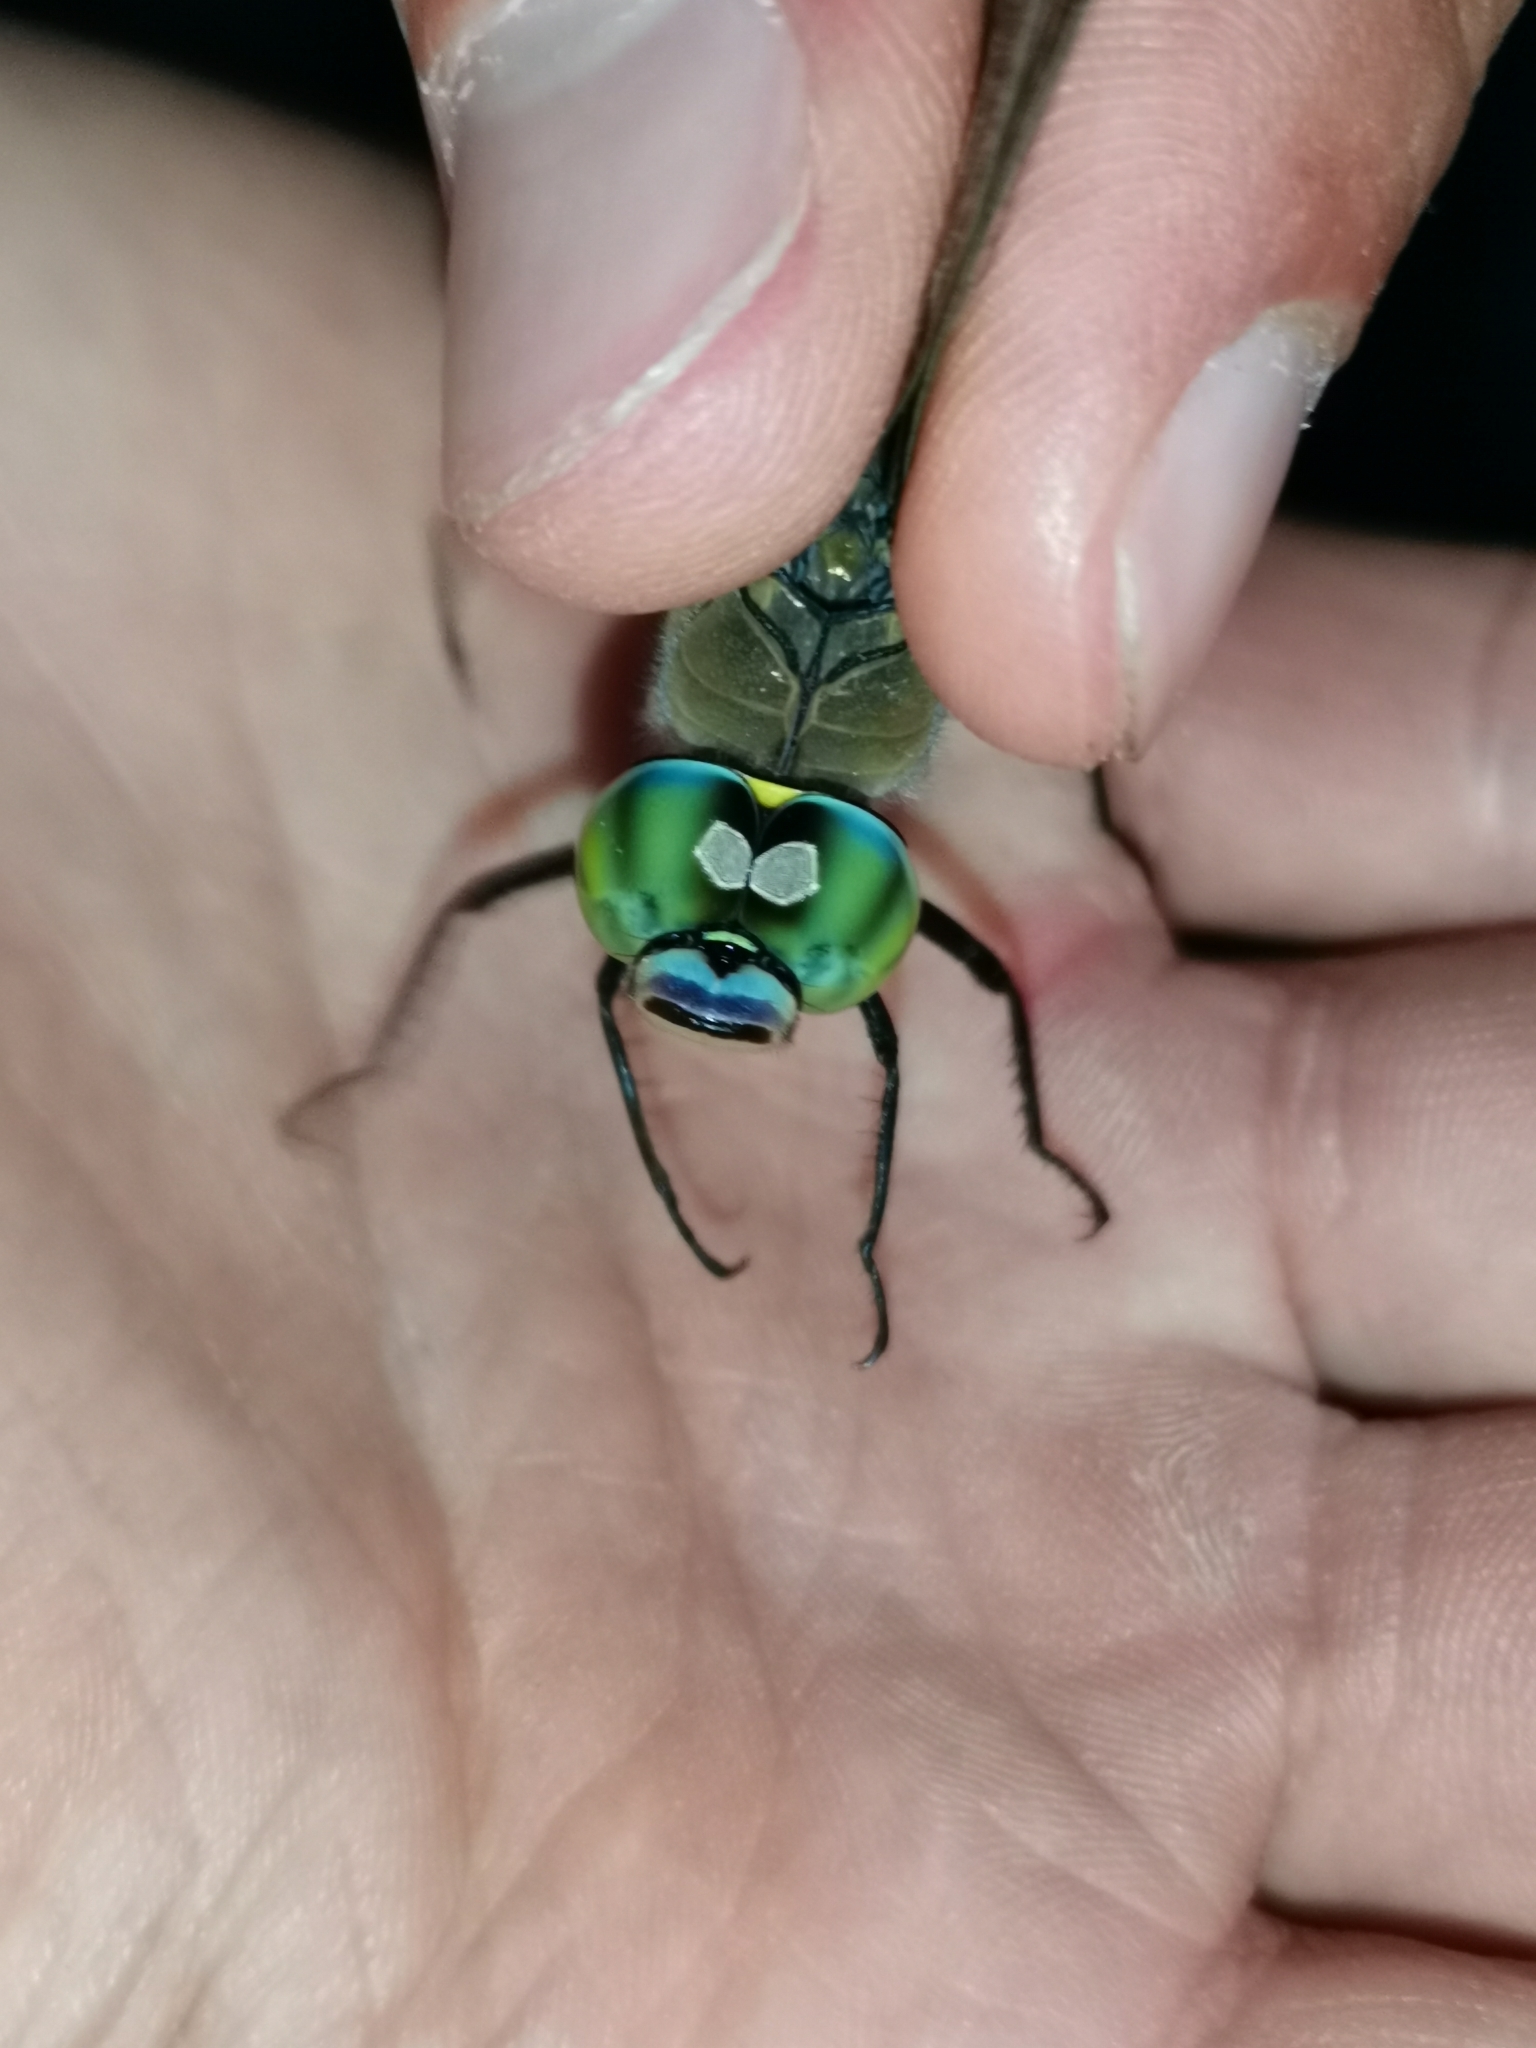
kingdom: Animalia
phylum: Arthropoda
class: Insecta
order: Odonata
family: Aeshnidae
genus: Anax
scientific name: Anax parthenope
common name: Lesser emperor
